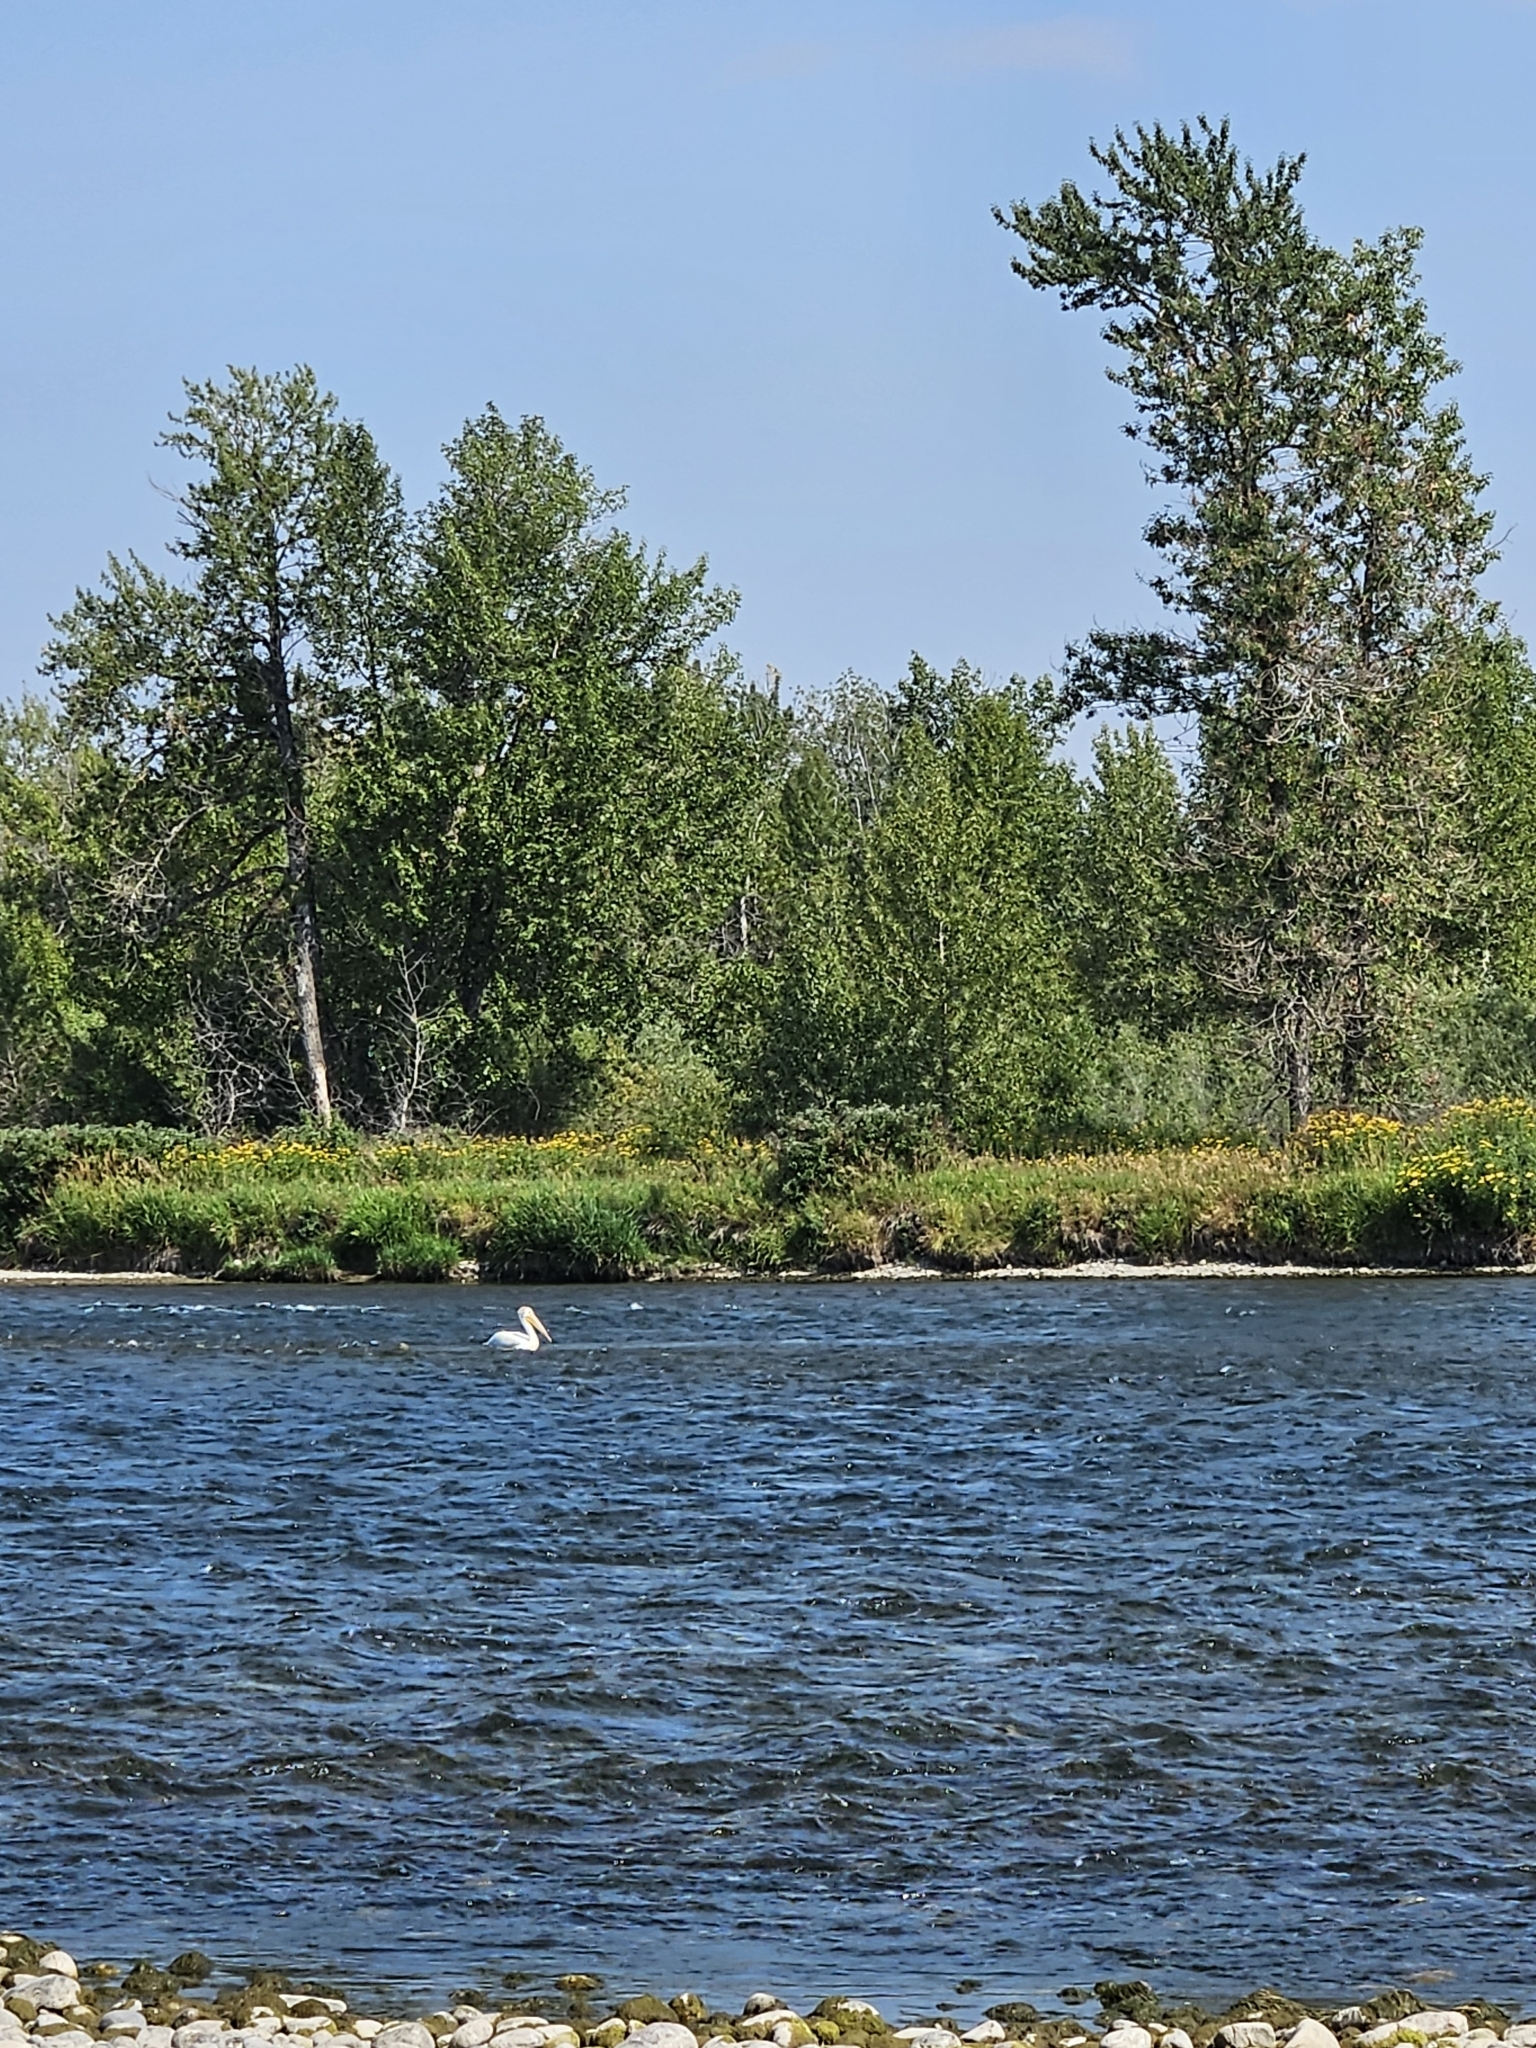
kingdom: Animalia
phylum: Chordata
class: Aves
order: Pelecaniformes
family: Pelecanidae
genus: Pelecanus
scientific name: Pelecanus erythrorhynchos
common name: American white pelican
